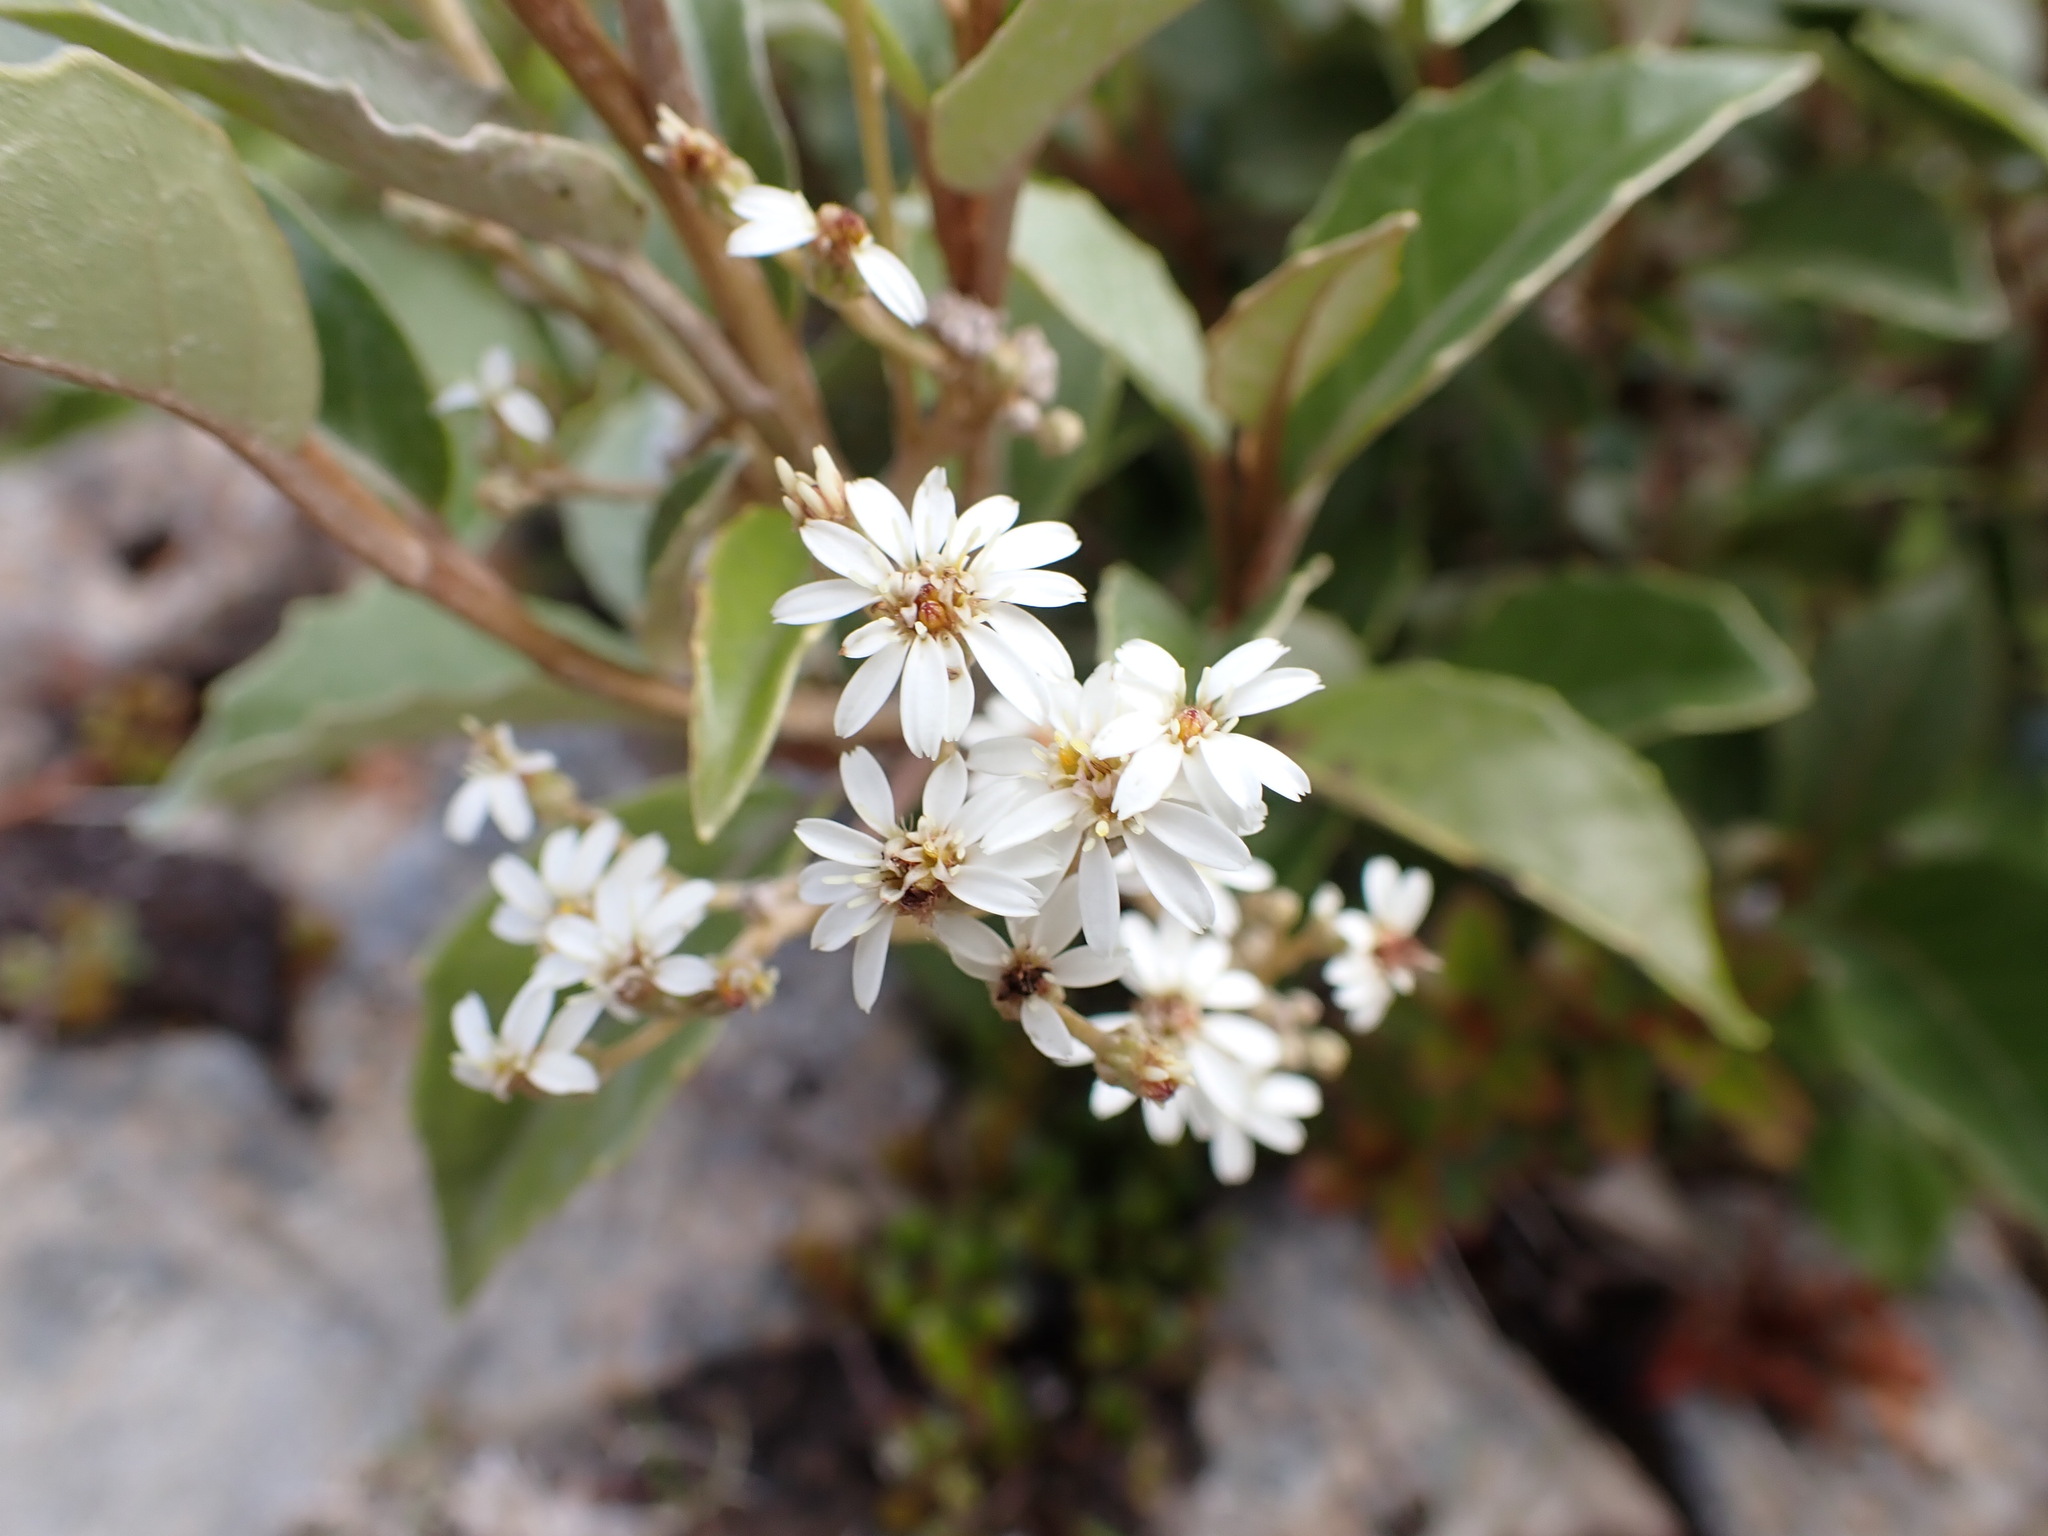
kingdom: Plantae
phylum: Tracheophyta
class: Magnoliopsida
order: Asterales
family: Asteraceae
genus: Olearia
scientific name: Olearia arborescens
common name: Glossy tree daisy
